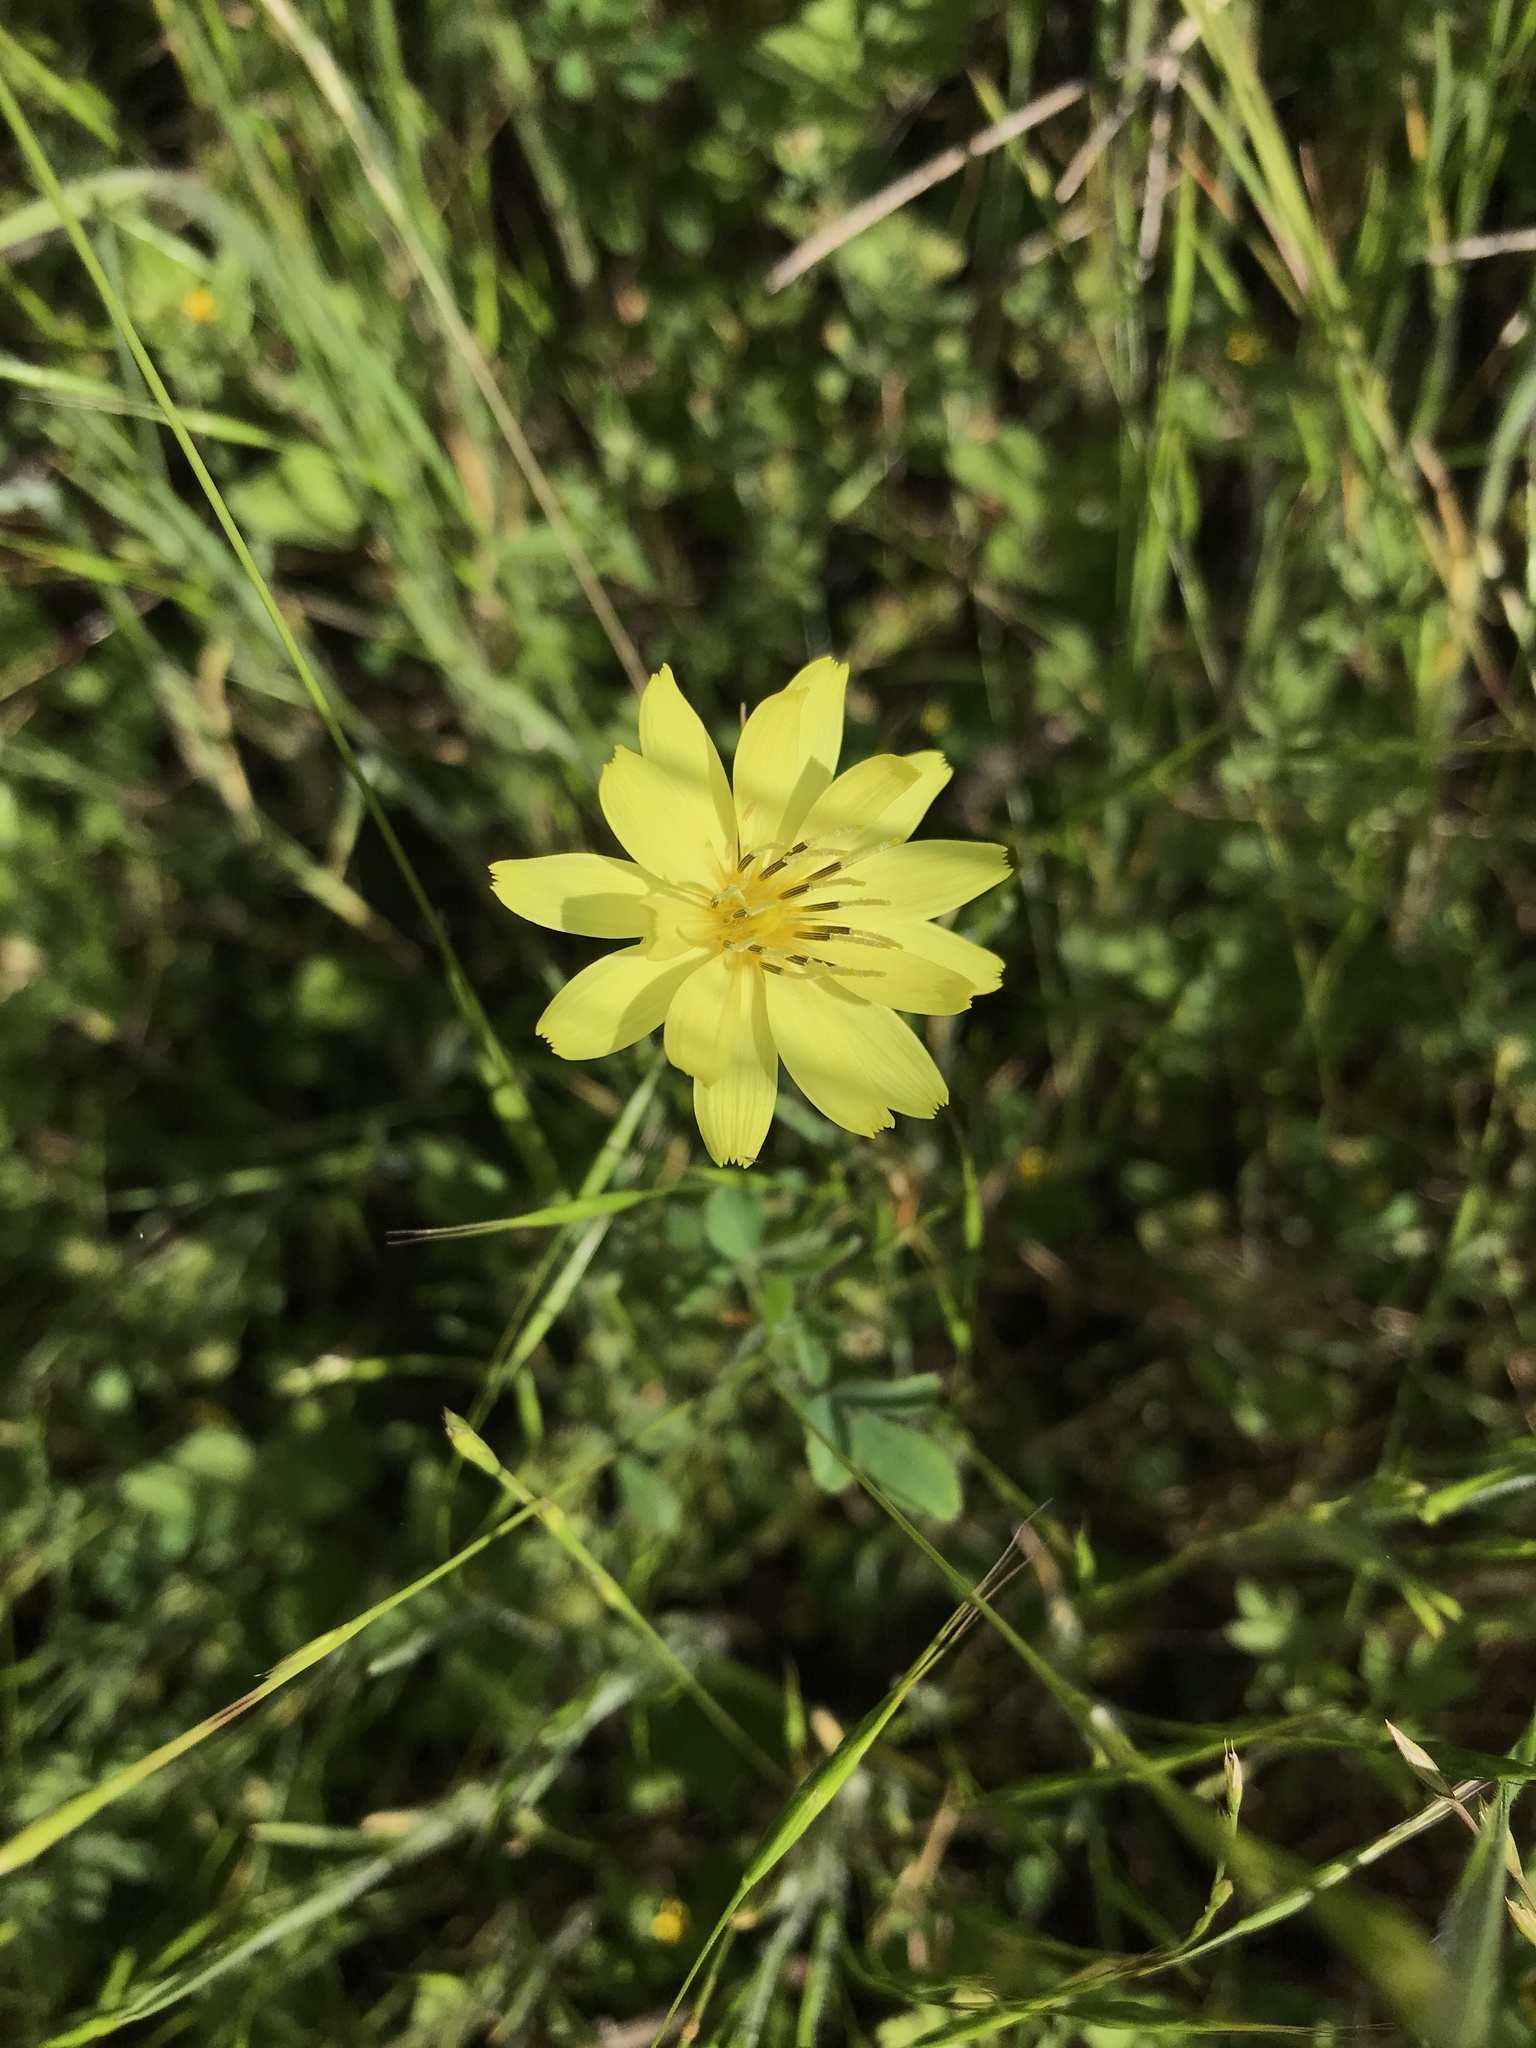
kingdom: Plantae
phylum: Tracheophyta
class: Magnoliopsida
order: Asterales
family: Asteraceae
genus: Pyrrhopappus
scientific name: Pyrrhopappus pauciflorus
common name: Texas false dandelion
